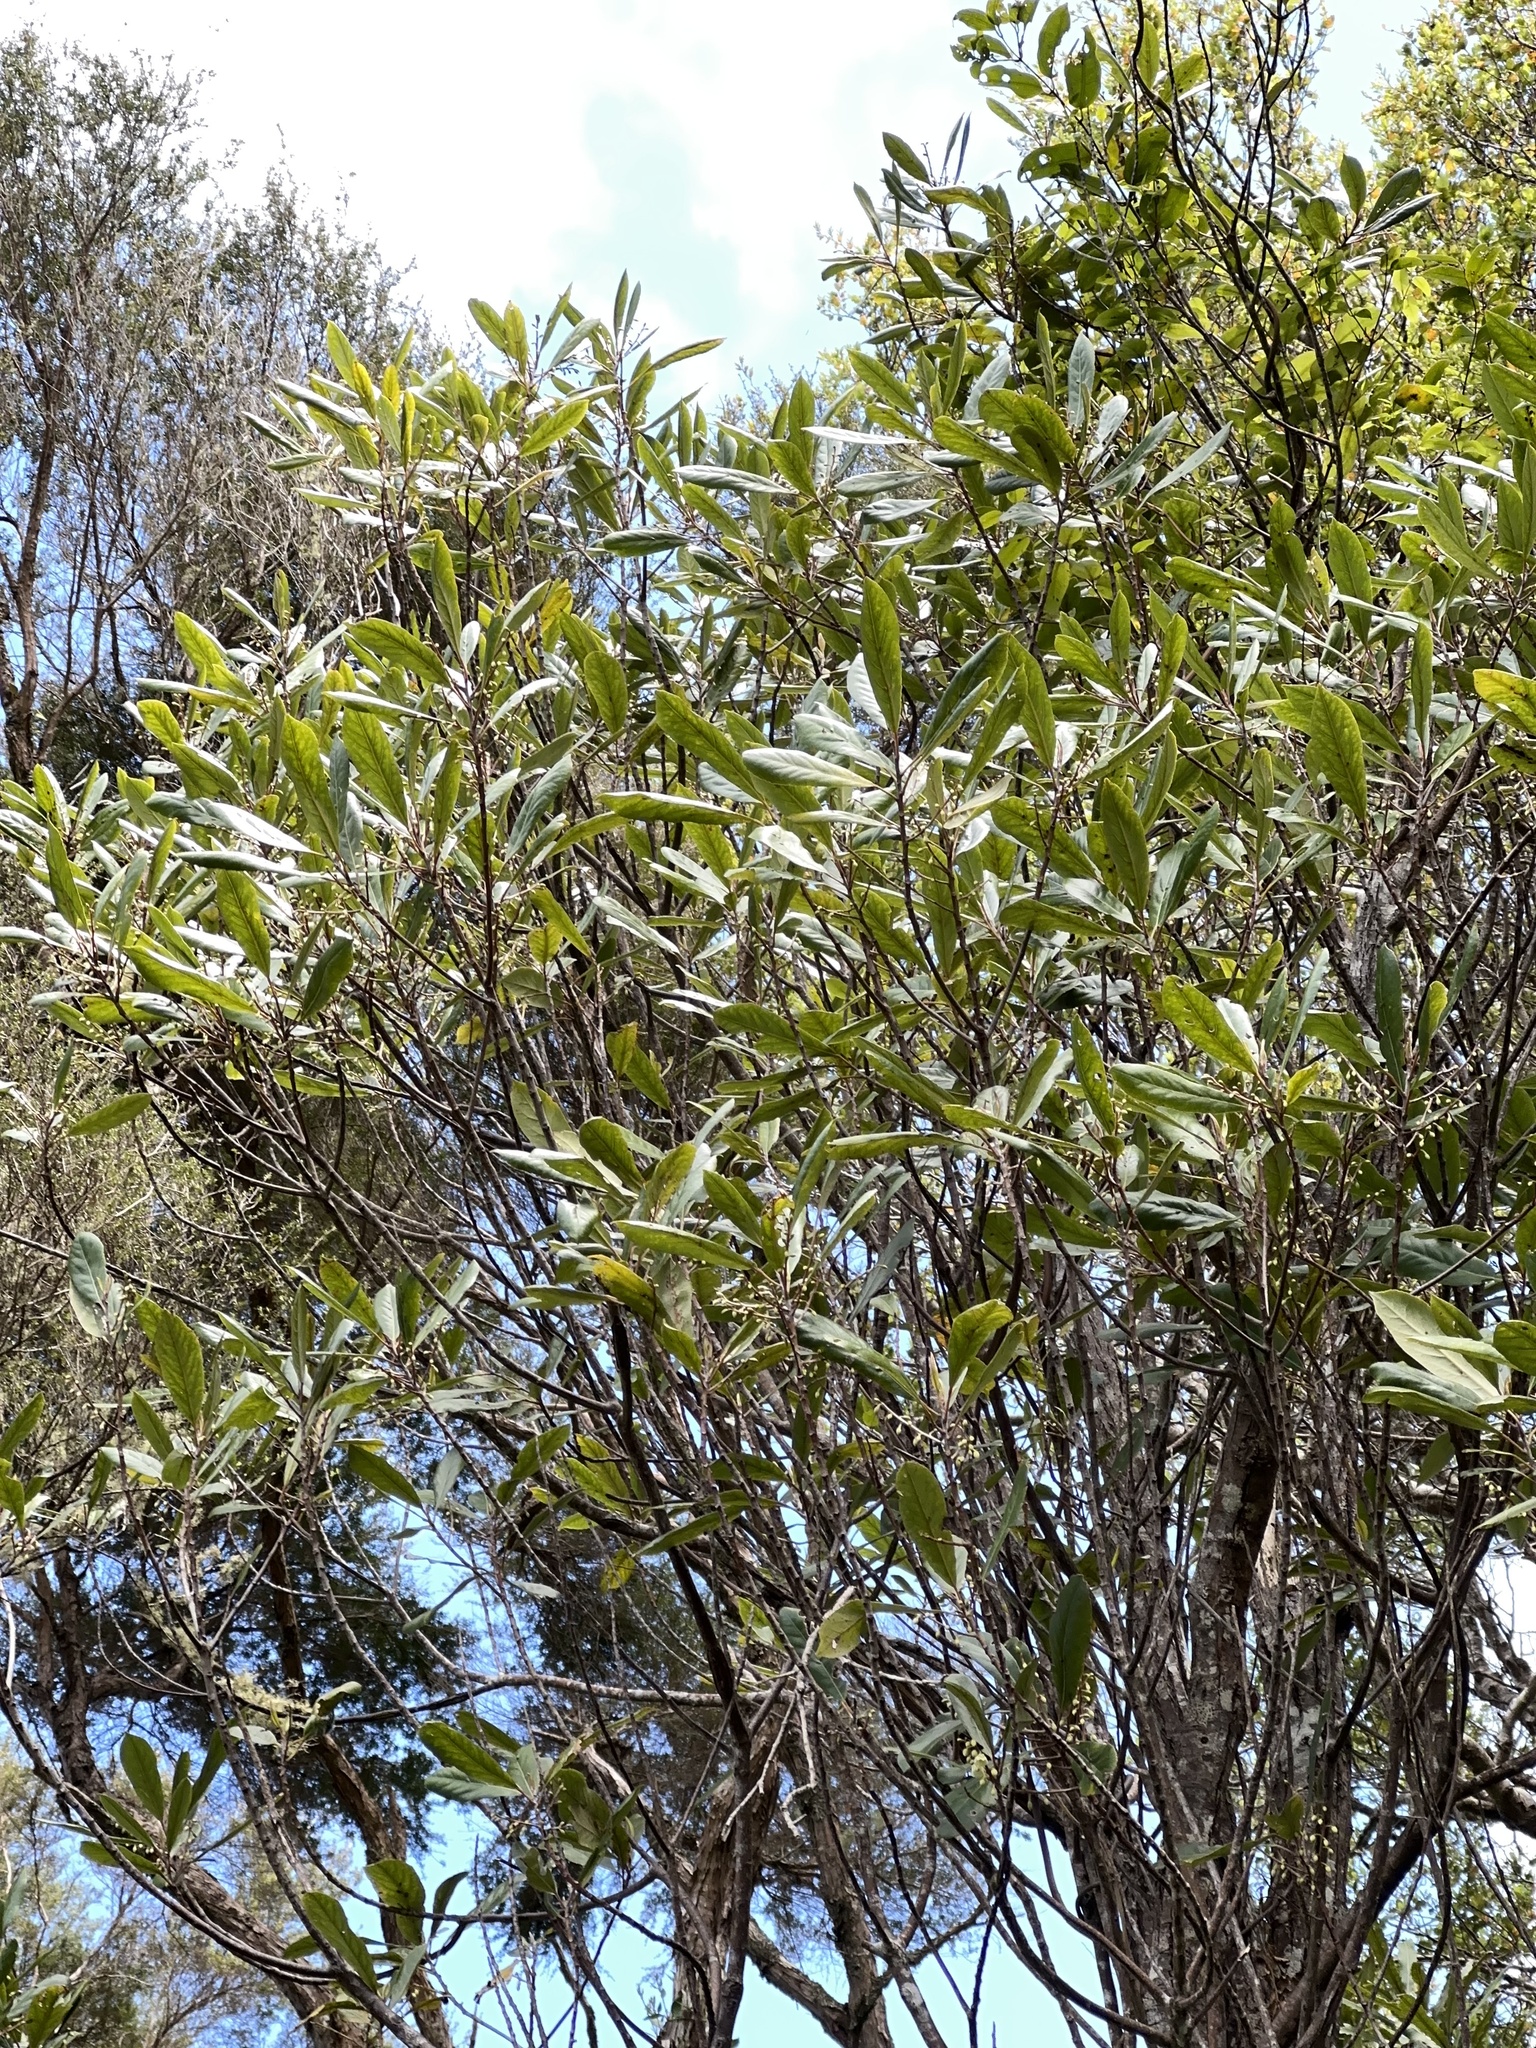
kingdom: Plantae
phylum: Tracheophyta
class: Magnoliopsida
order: Oxalidales
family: Elaeocarpaceae
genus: Elaeocarpus
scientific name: Elaeocarpus dentatus
